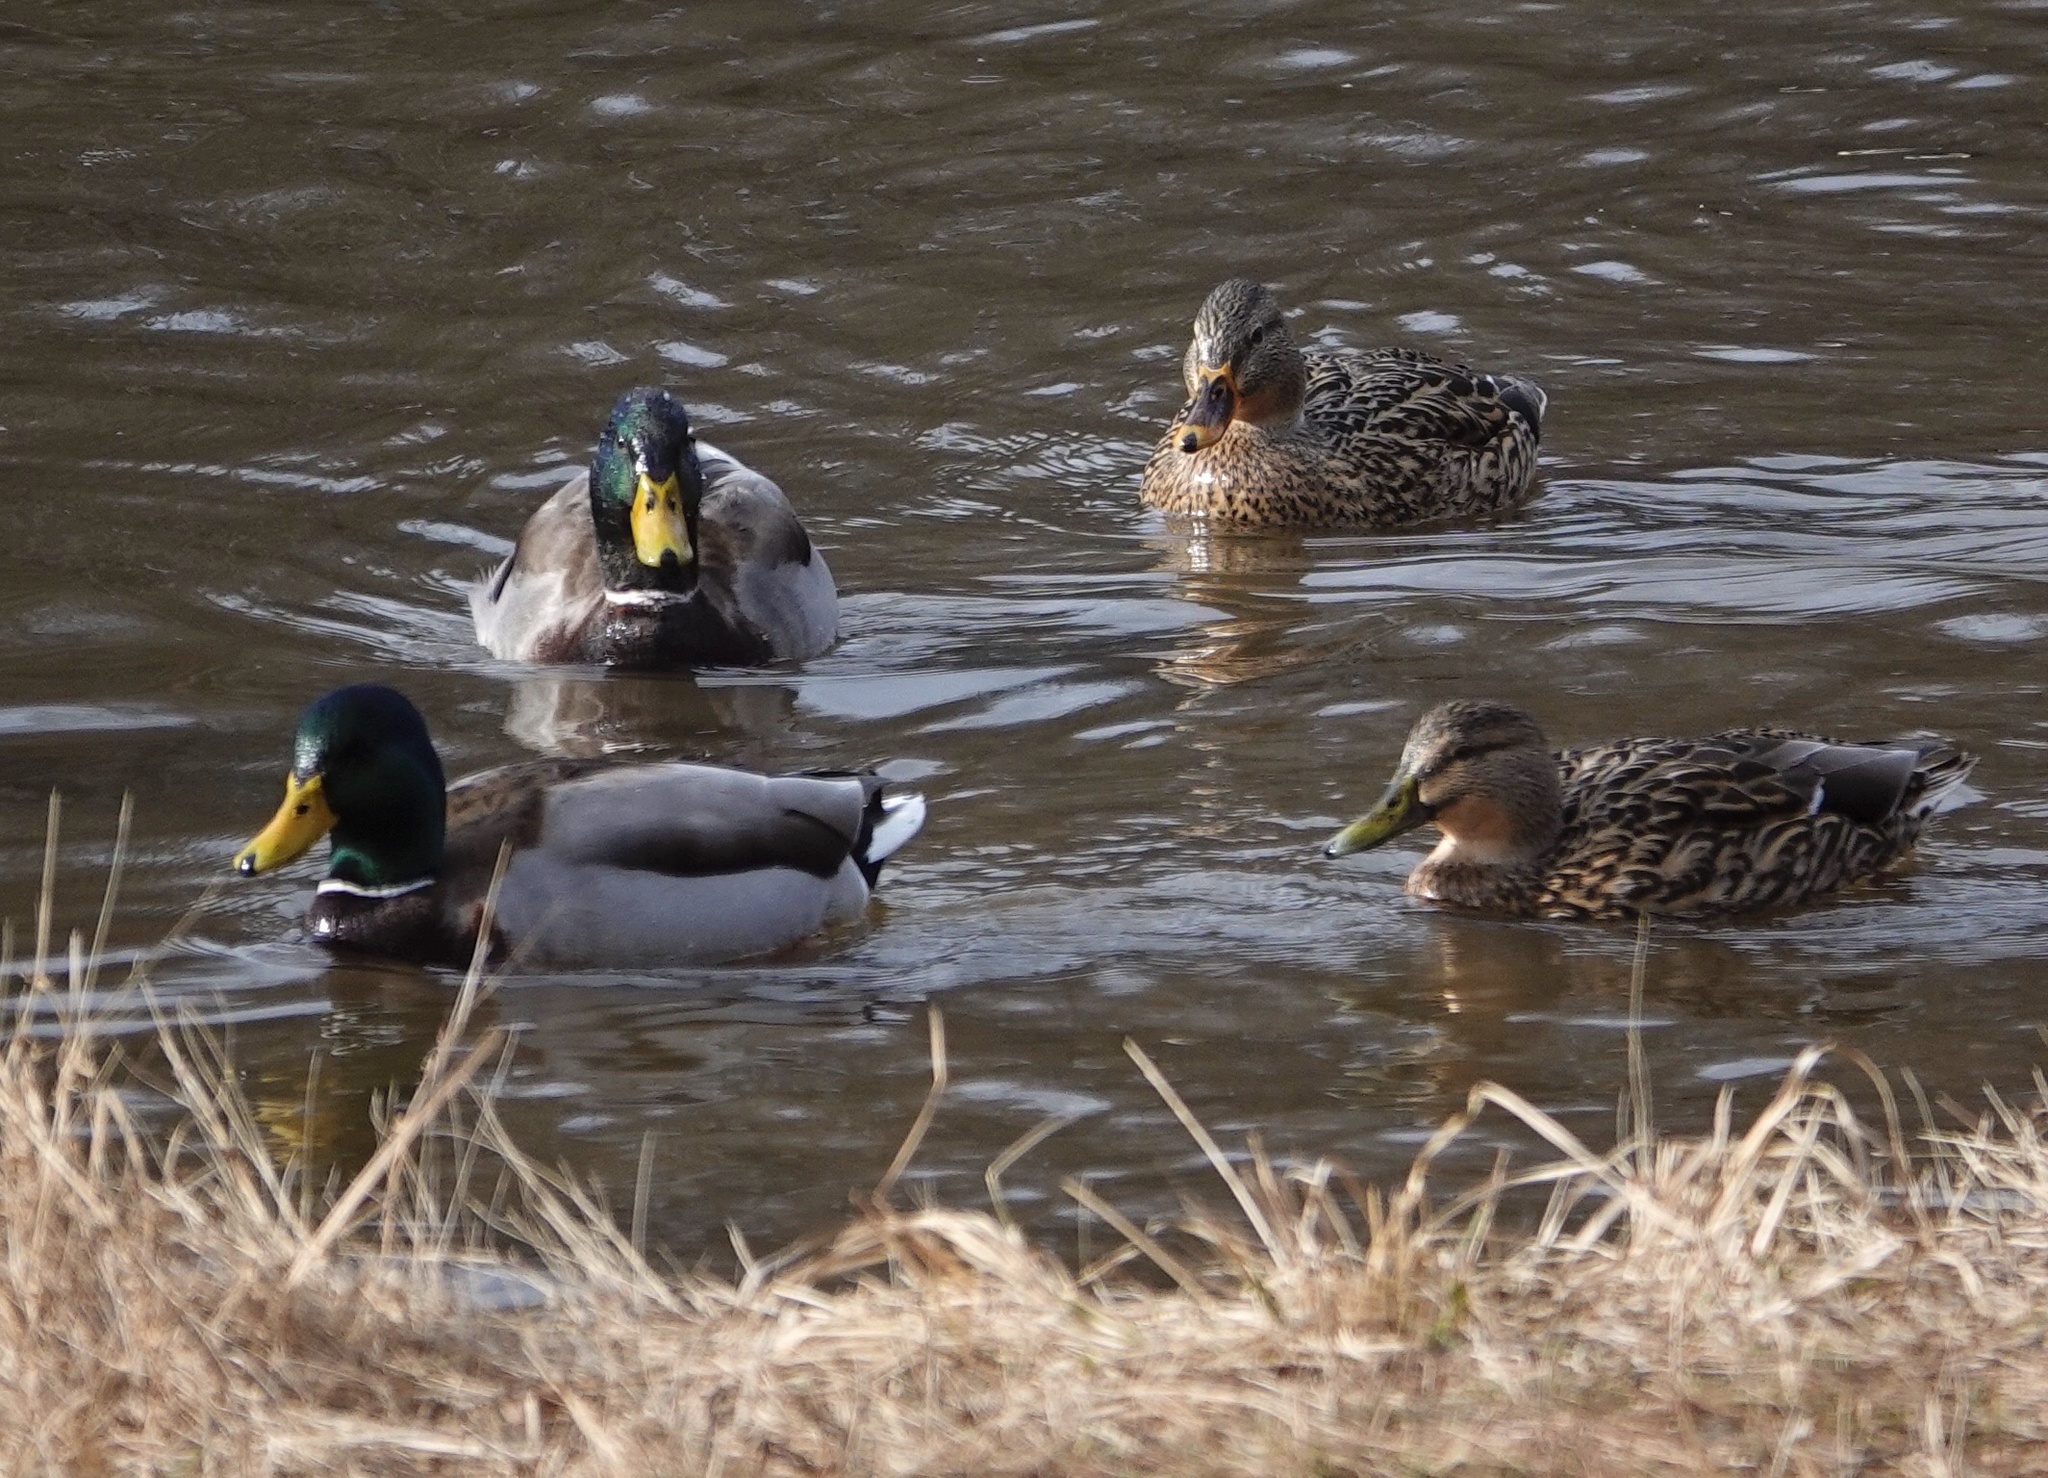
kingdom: Animalia
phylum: Chordata
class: Aves
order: Anseriformes
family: Anatidae
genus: Anas
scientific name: Anas platyrhynchos
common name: Mallard
